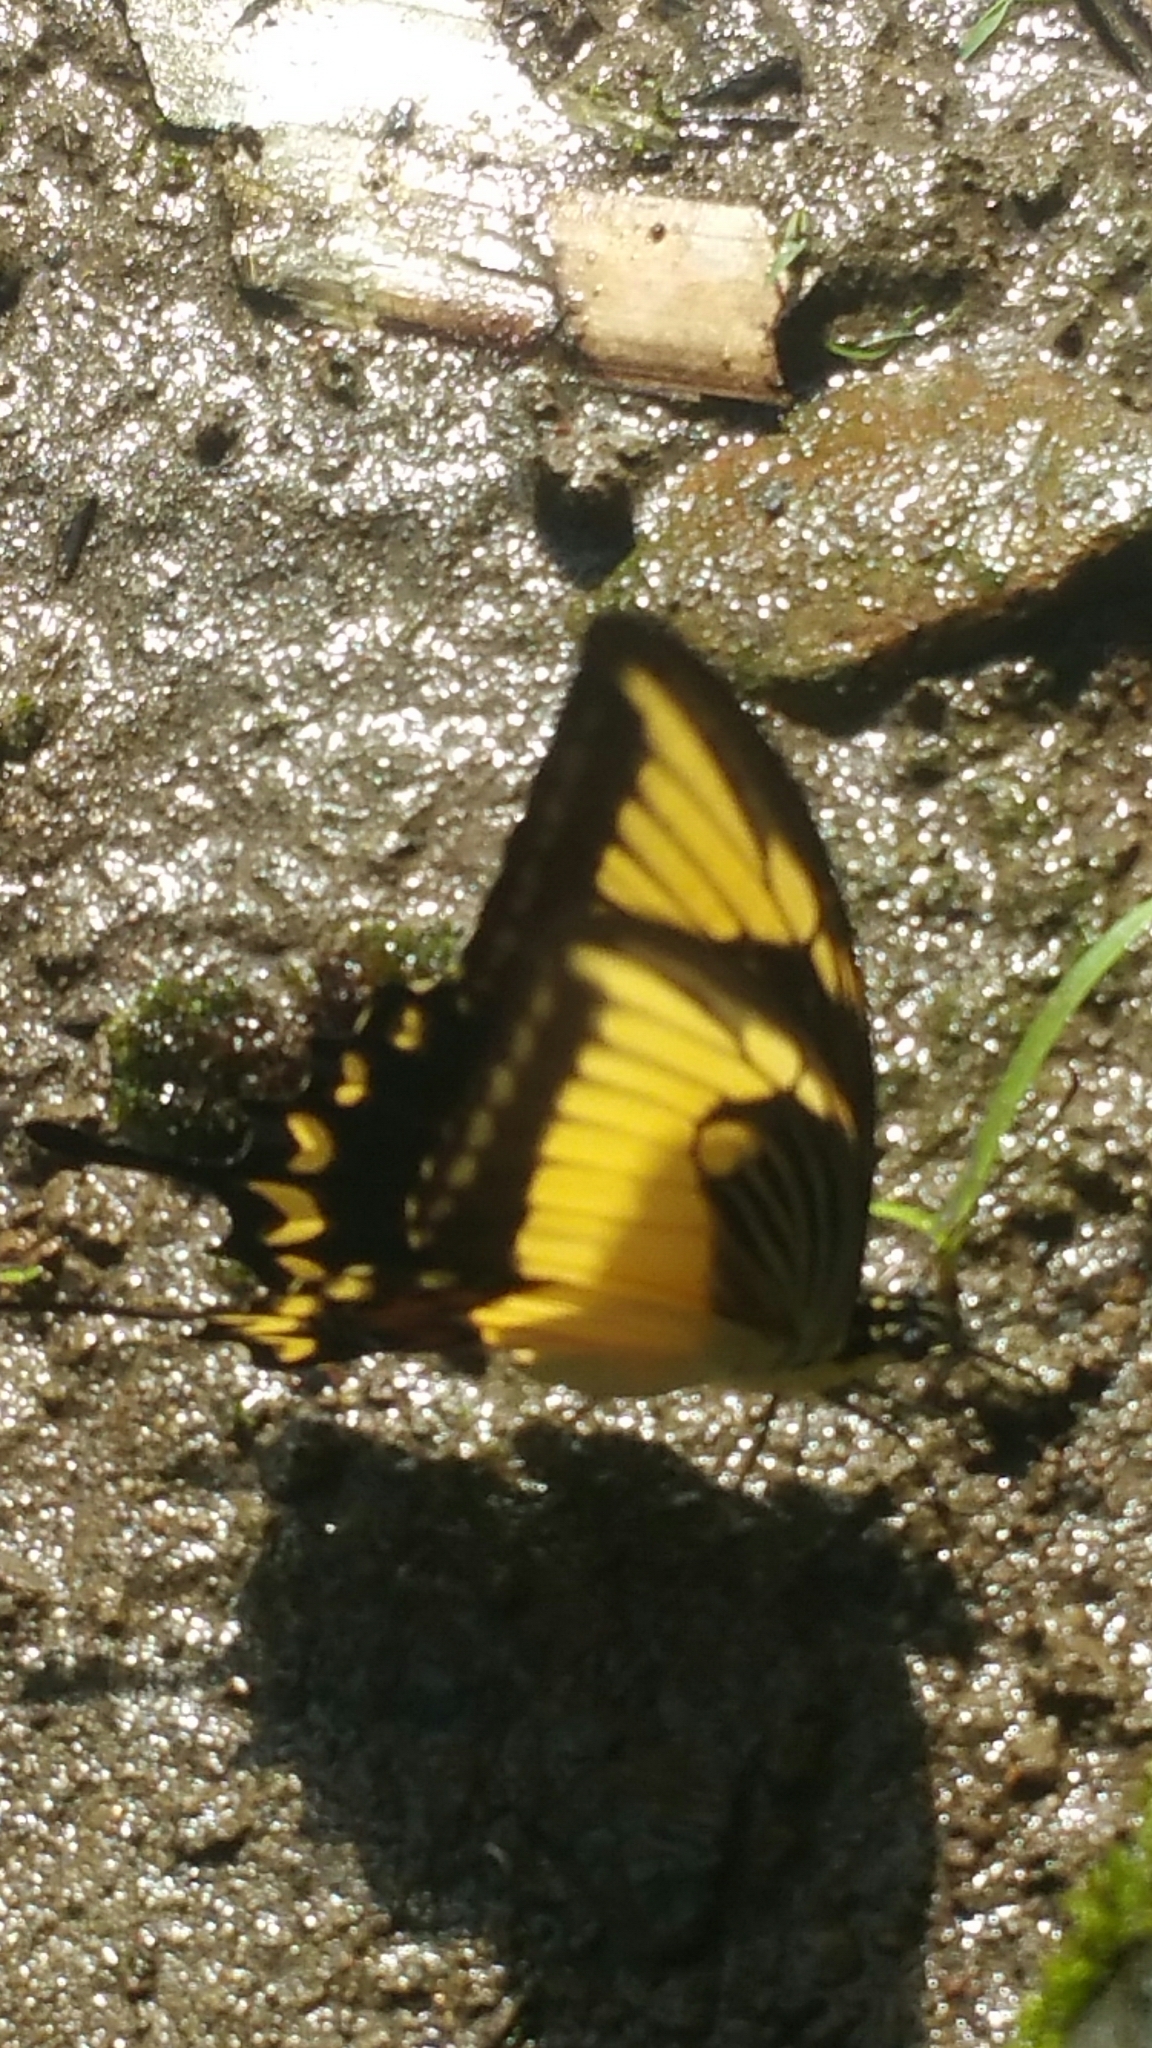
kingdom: Animalia
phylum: Arthropoda
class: Insecta
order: Lepidoptera
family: Papilionidae
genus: Papilio
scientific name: Papilio astyalus
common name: Astyalus swallowtail
